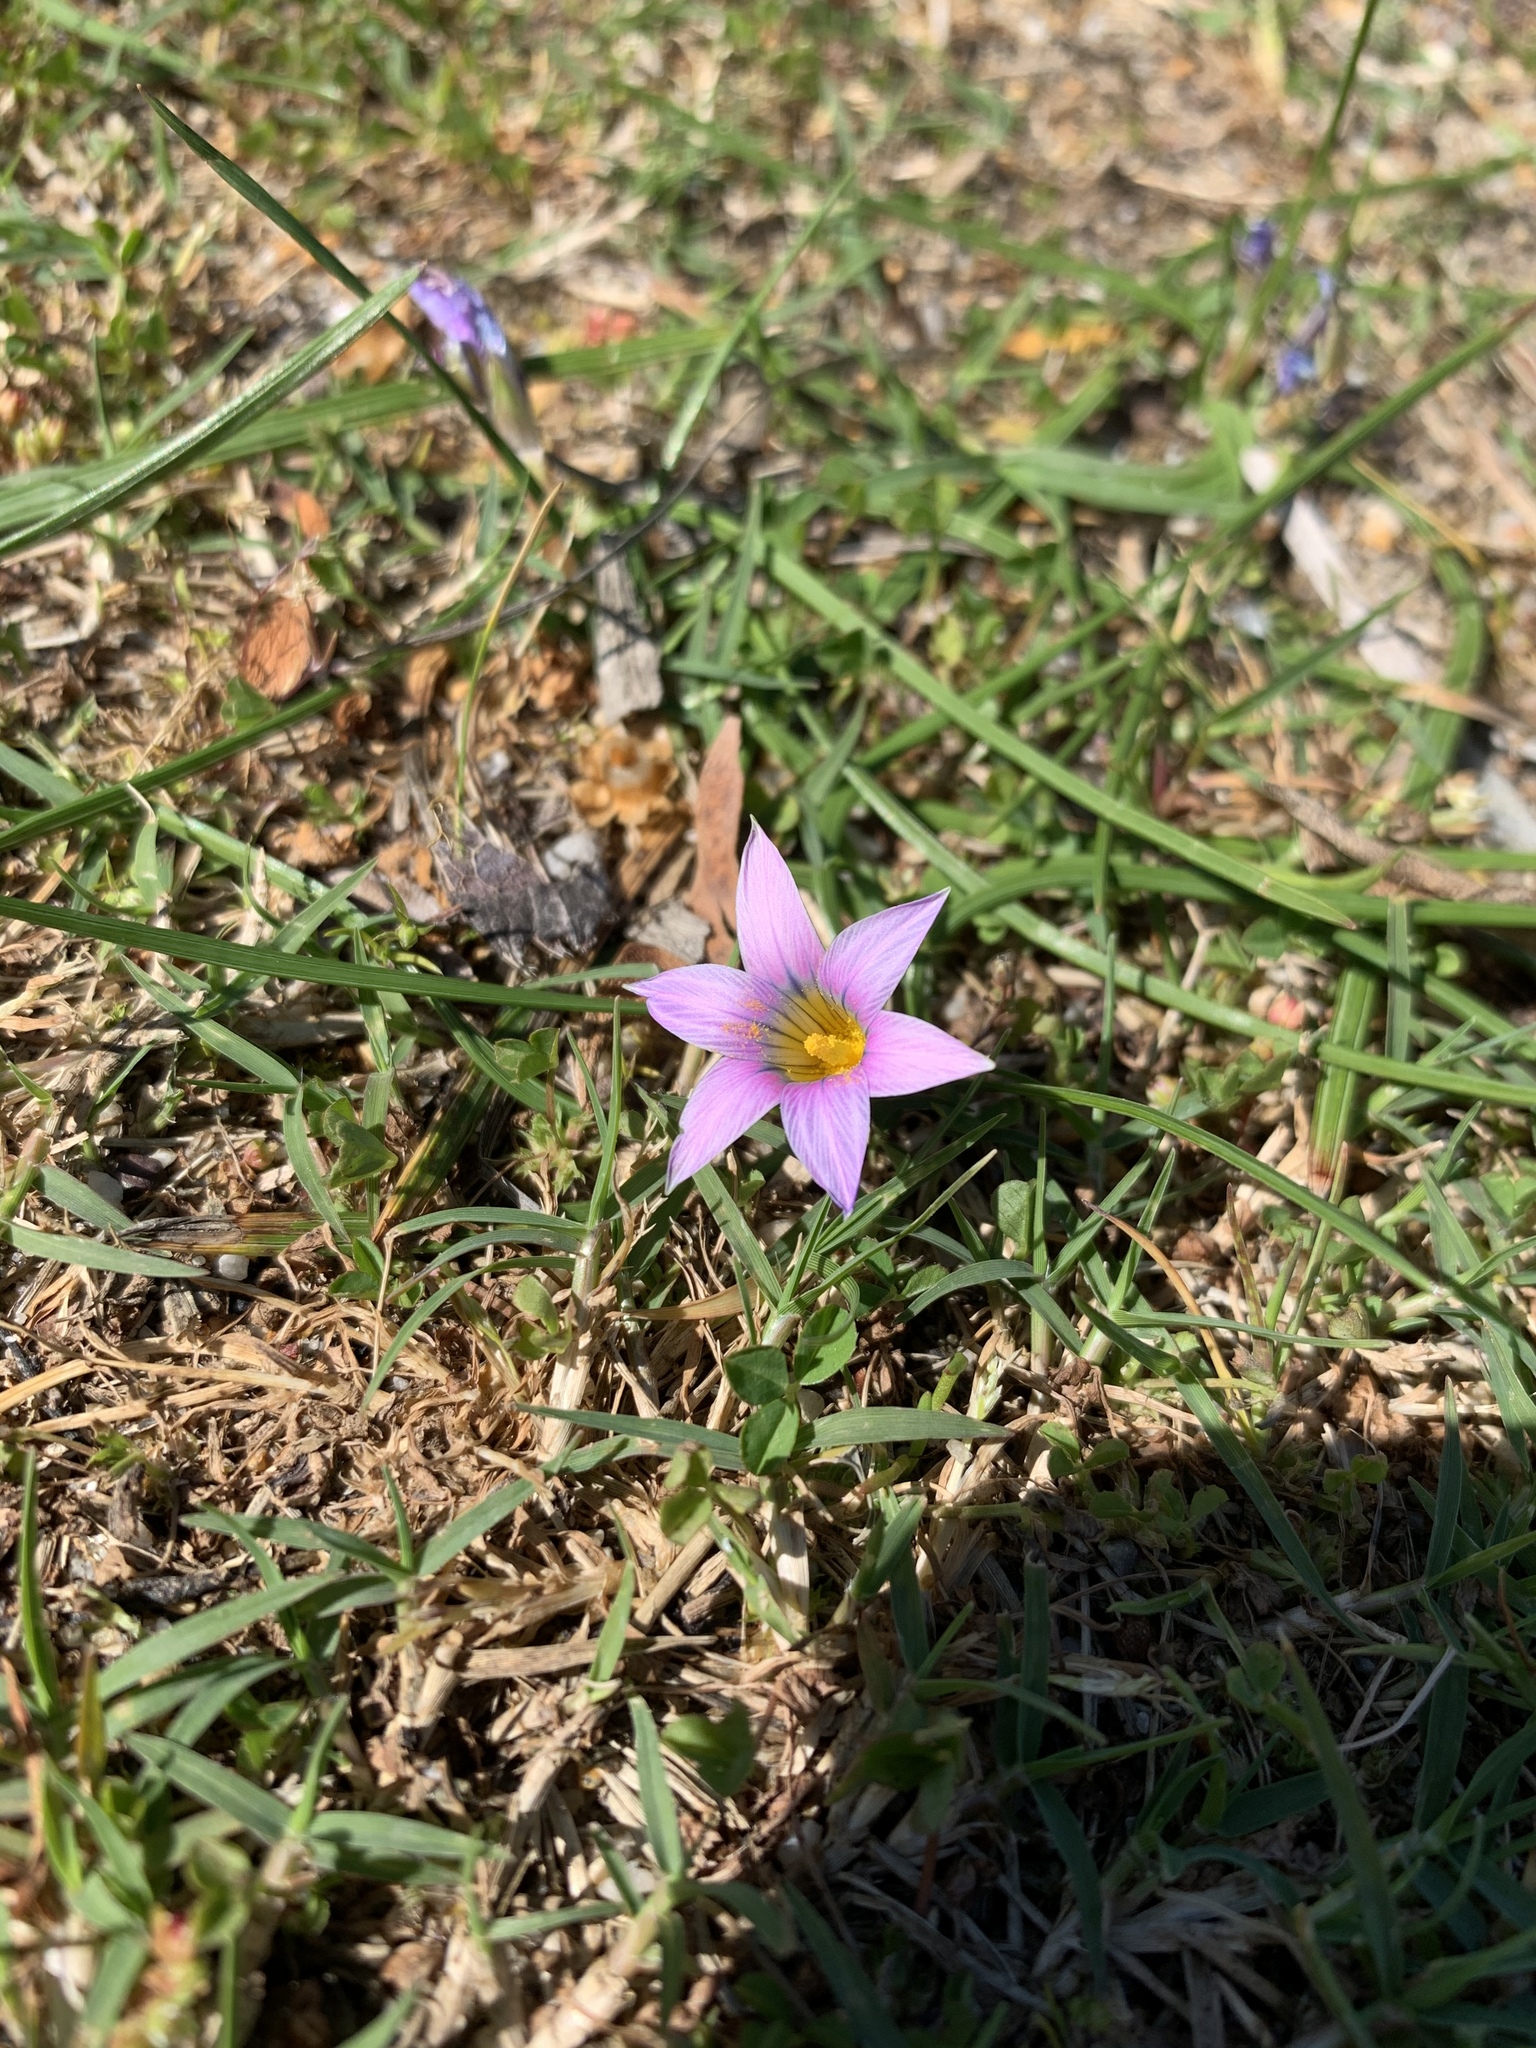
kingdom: Plantae
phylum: Tracheophyta
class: Liliopsida
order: Asparagales
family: Iridaceae
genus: Romulea
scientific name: Romulea rosea
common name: Oniongrass
